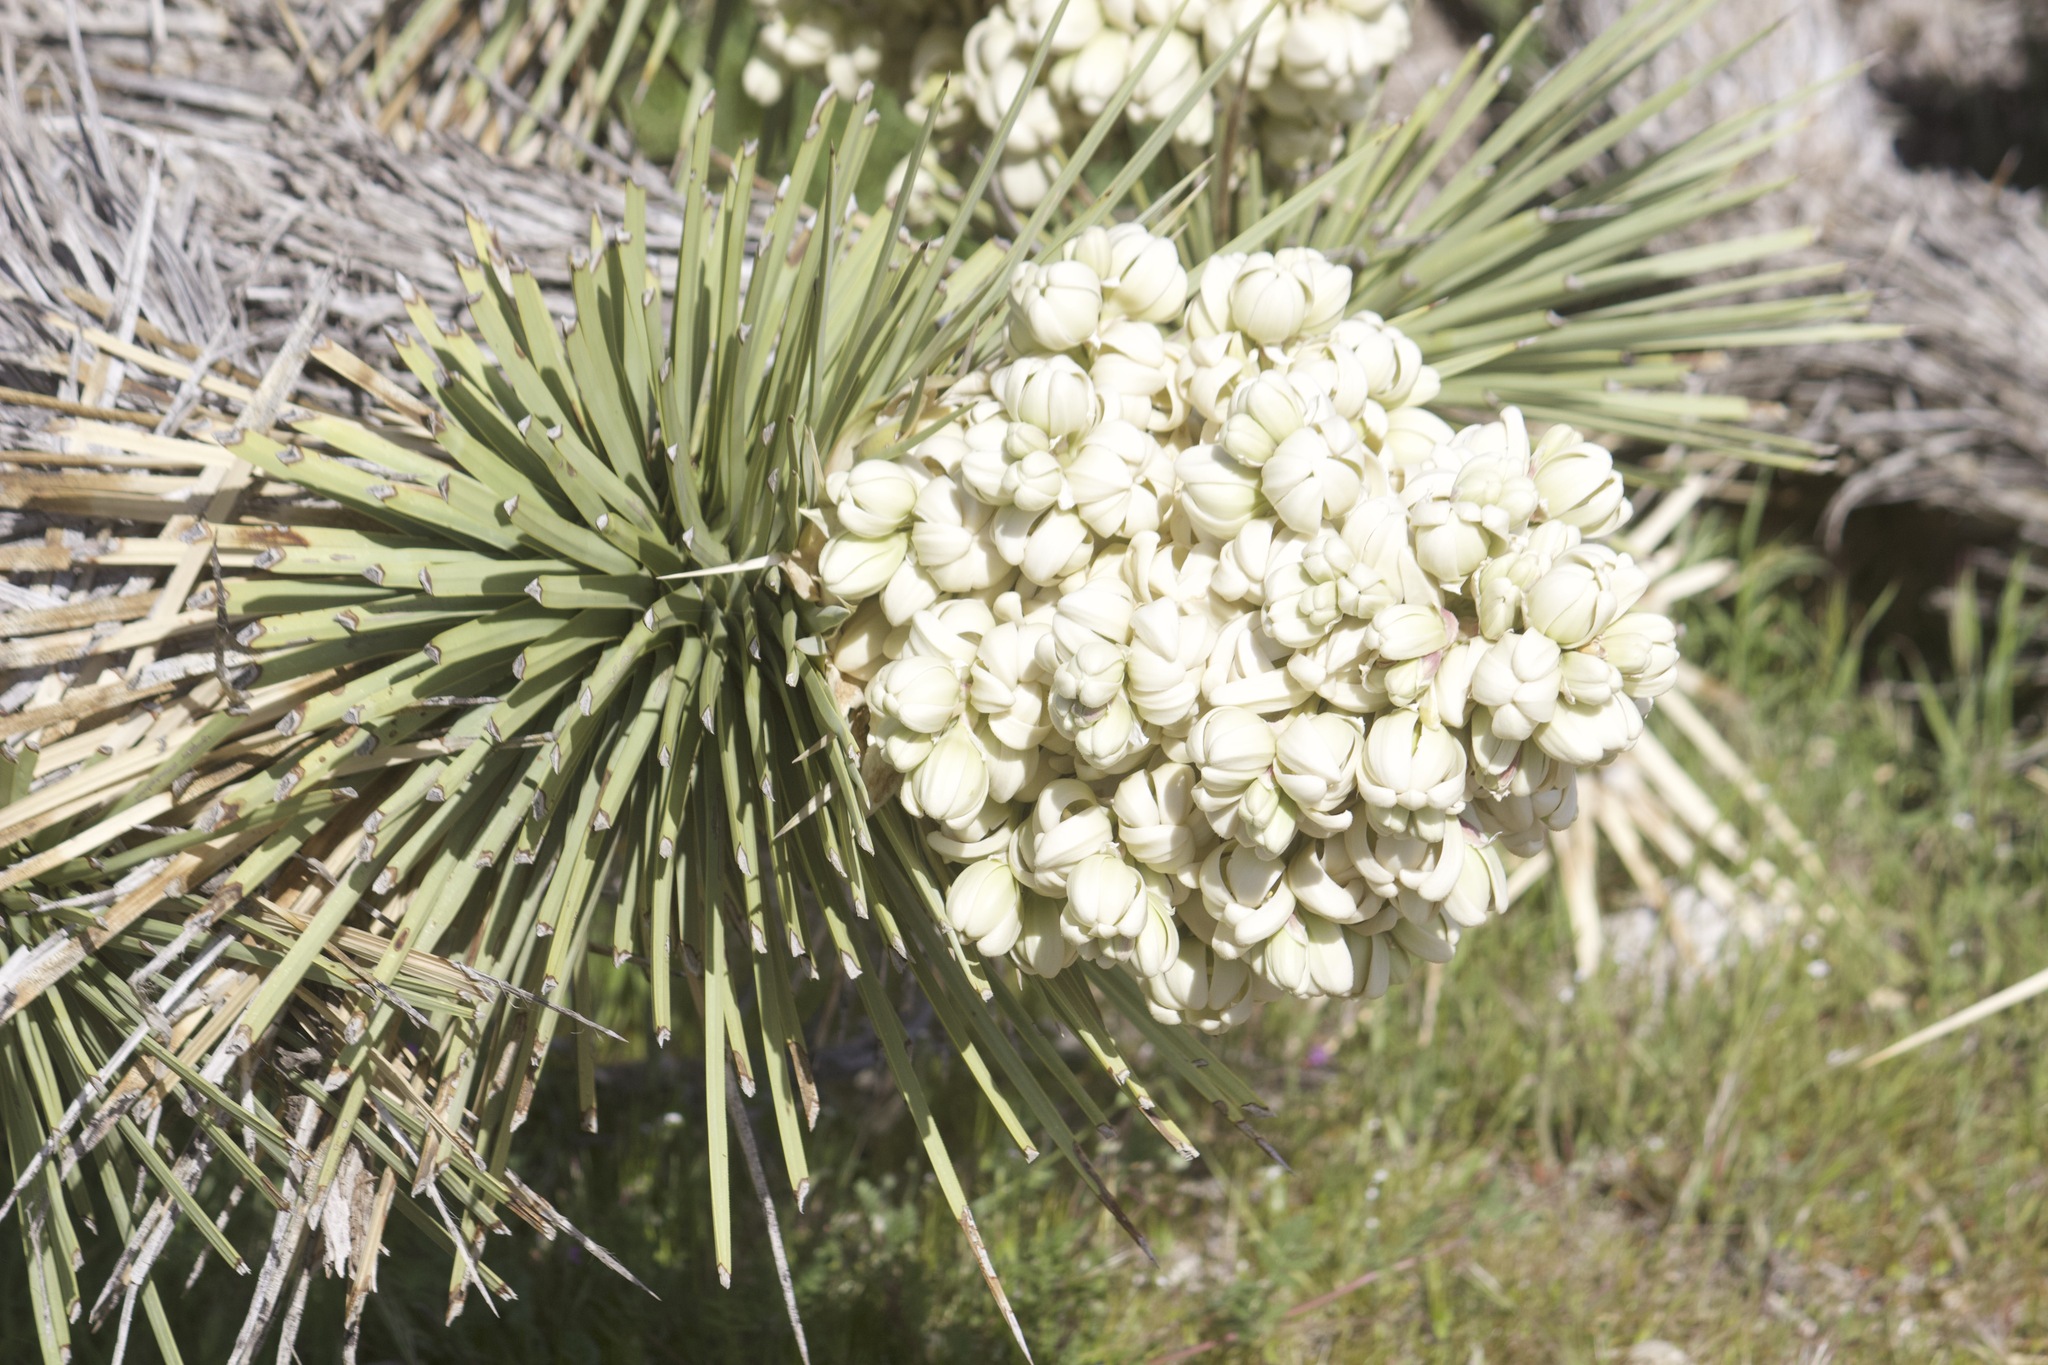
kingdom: Plantae
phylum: Tracheophyta
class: Liliopsida
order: Asparagales
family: Asparagaceae
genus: Yucca
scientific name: Yucca brevifolia
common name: Joshua tree
